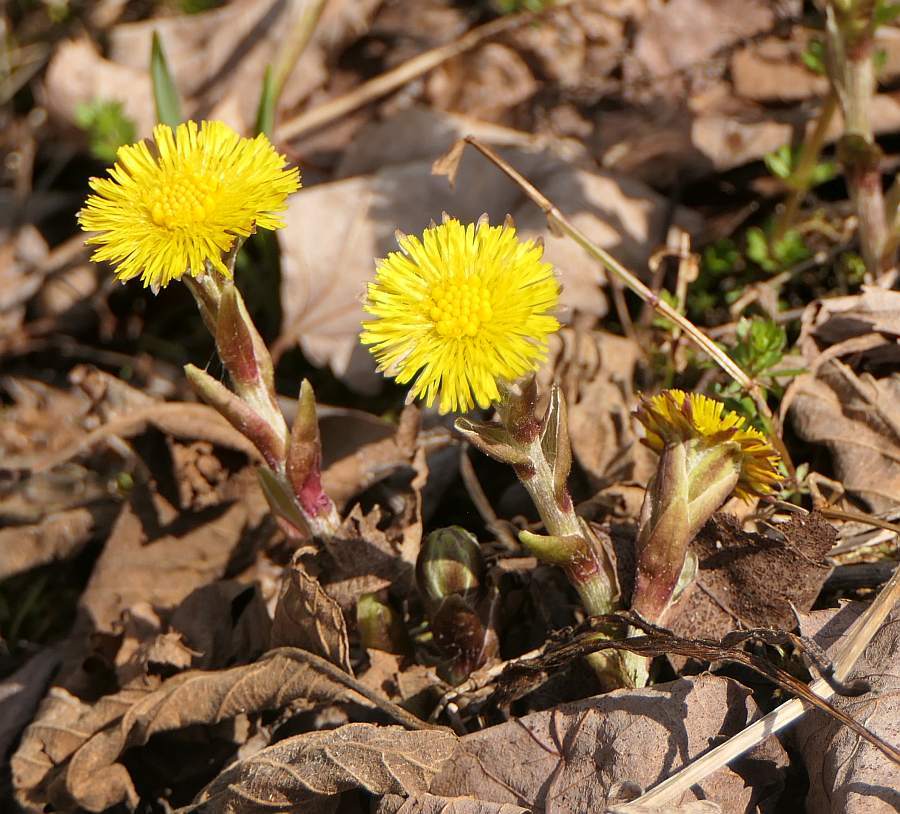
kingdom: Plantae
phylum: Tracheophyta
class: Magnoliopsida
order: Asterales
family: Asteraceae
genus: Tussilago
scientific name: Tussilago farfara
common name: Coltsfoot
